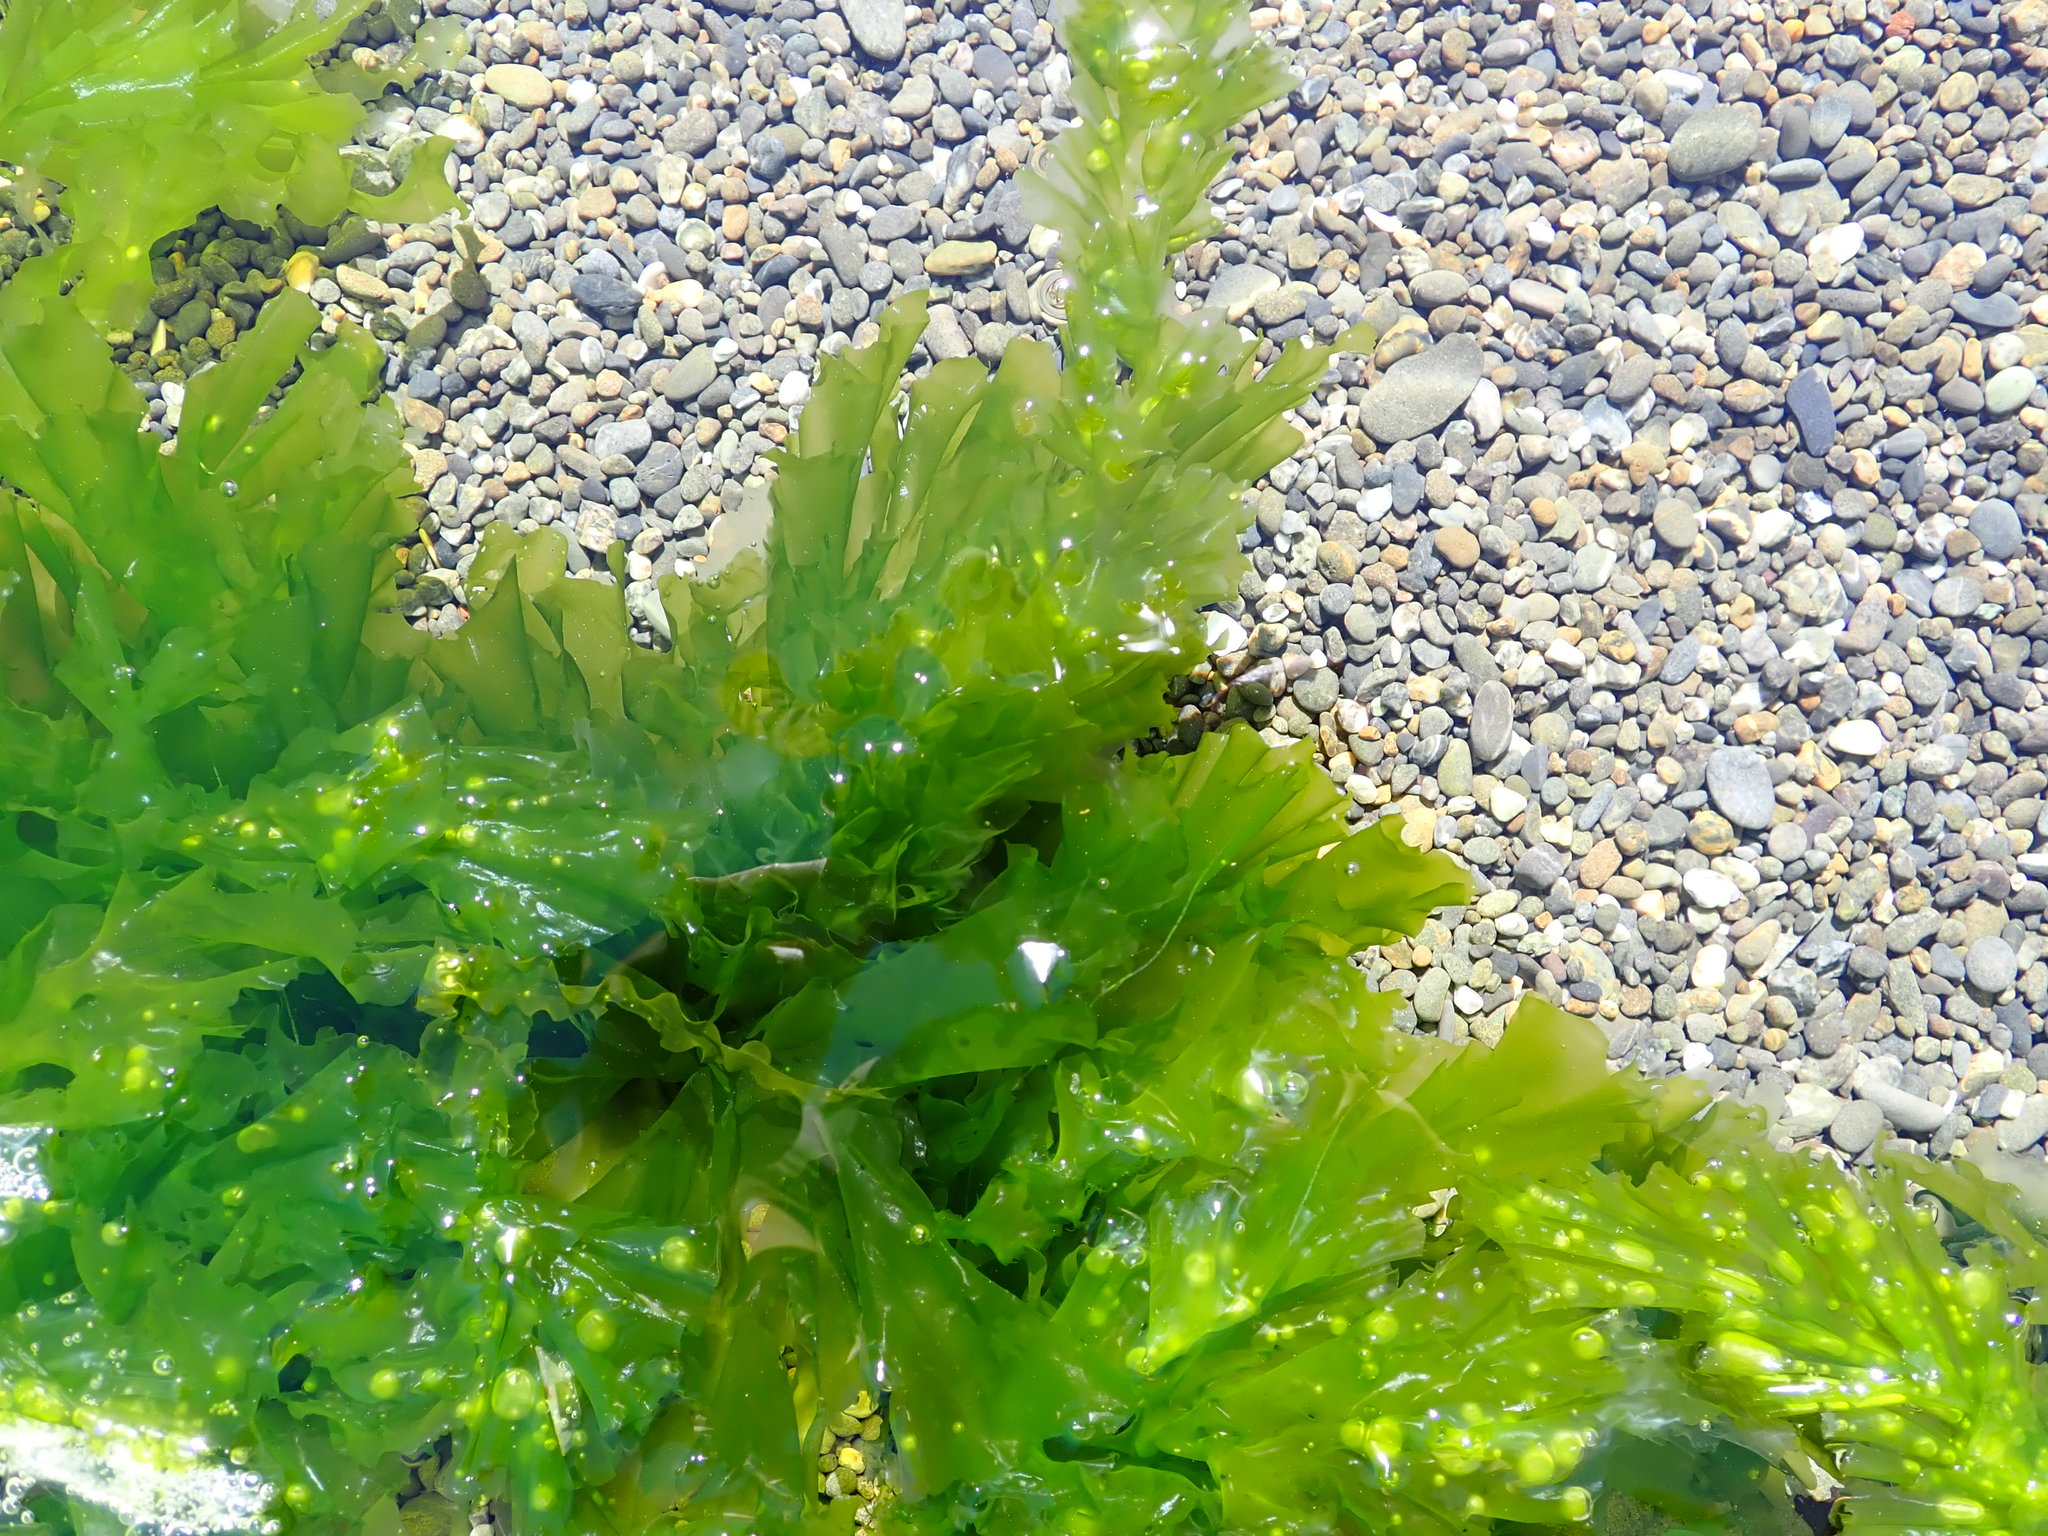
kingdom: Plantae
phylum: Chlorophyta
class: Ulvophyceae
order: Ulvales
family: Ulvaceae
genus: Ulva
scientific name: Ulva
